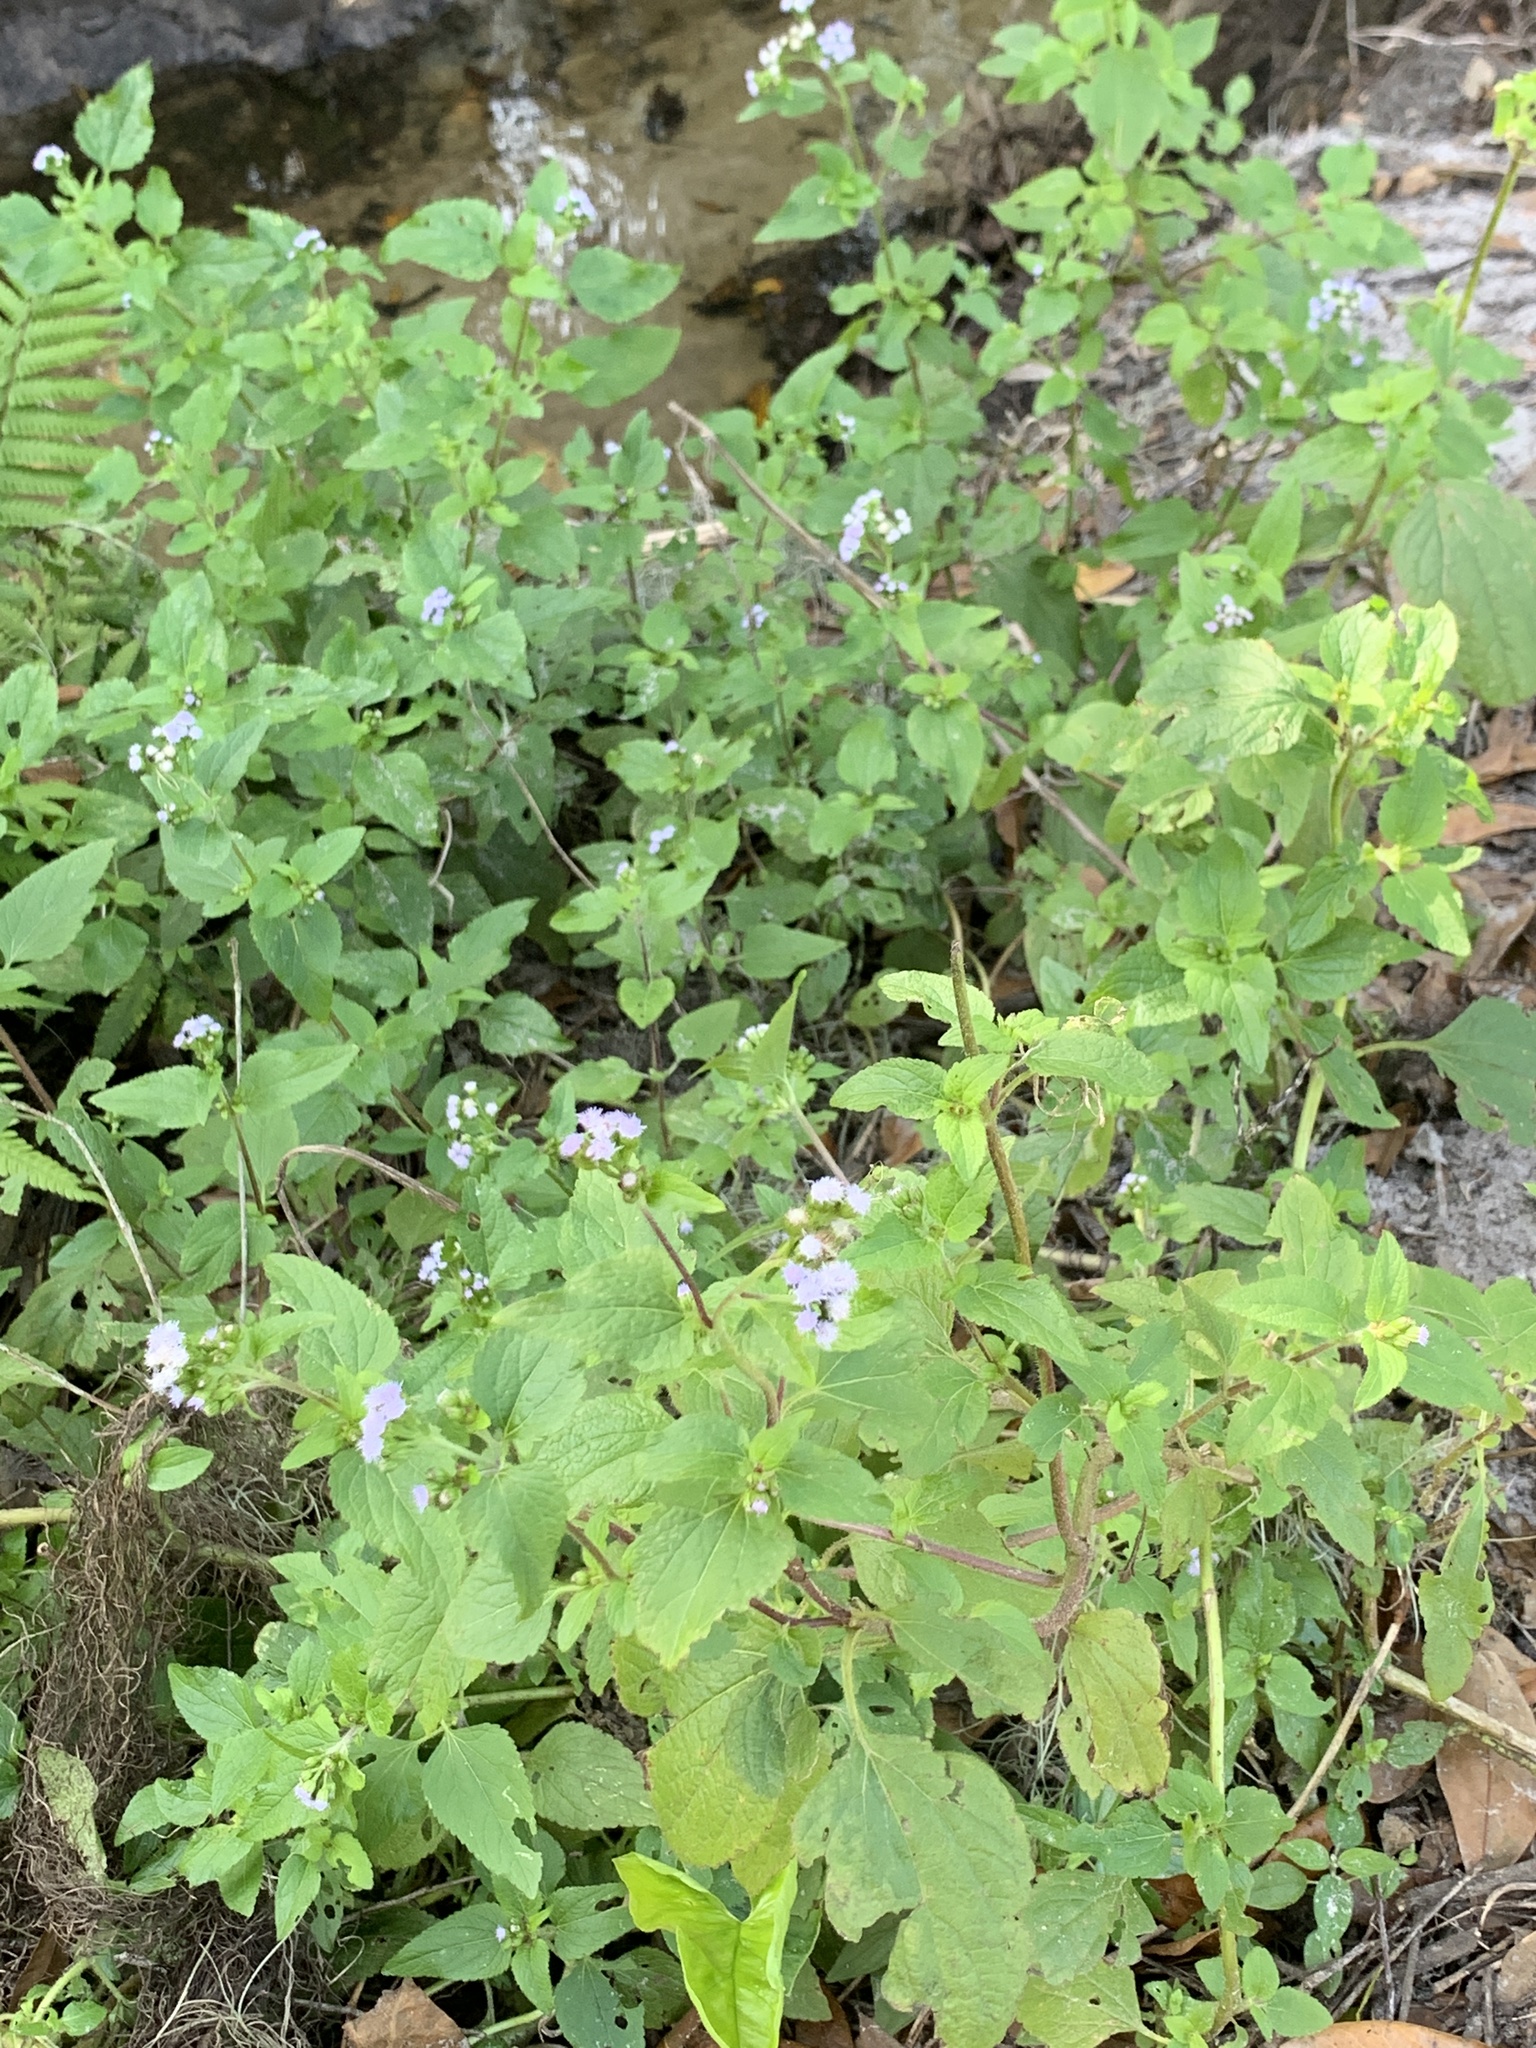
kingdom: Plantae
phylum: Tracheophyta
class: Magnoliopsida
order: Asterales
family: Asteraceae
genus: Ageratum
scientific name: Ageratum conyzoides
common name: Tropical whiteweed
